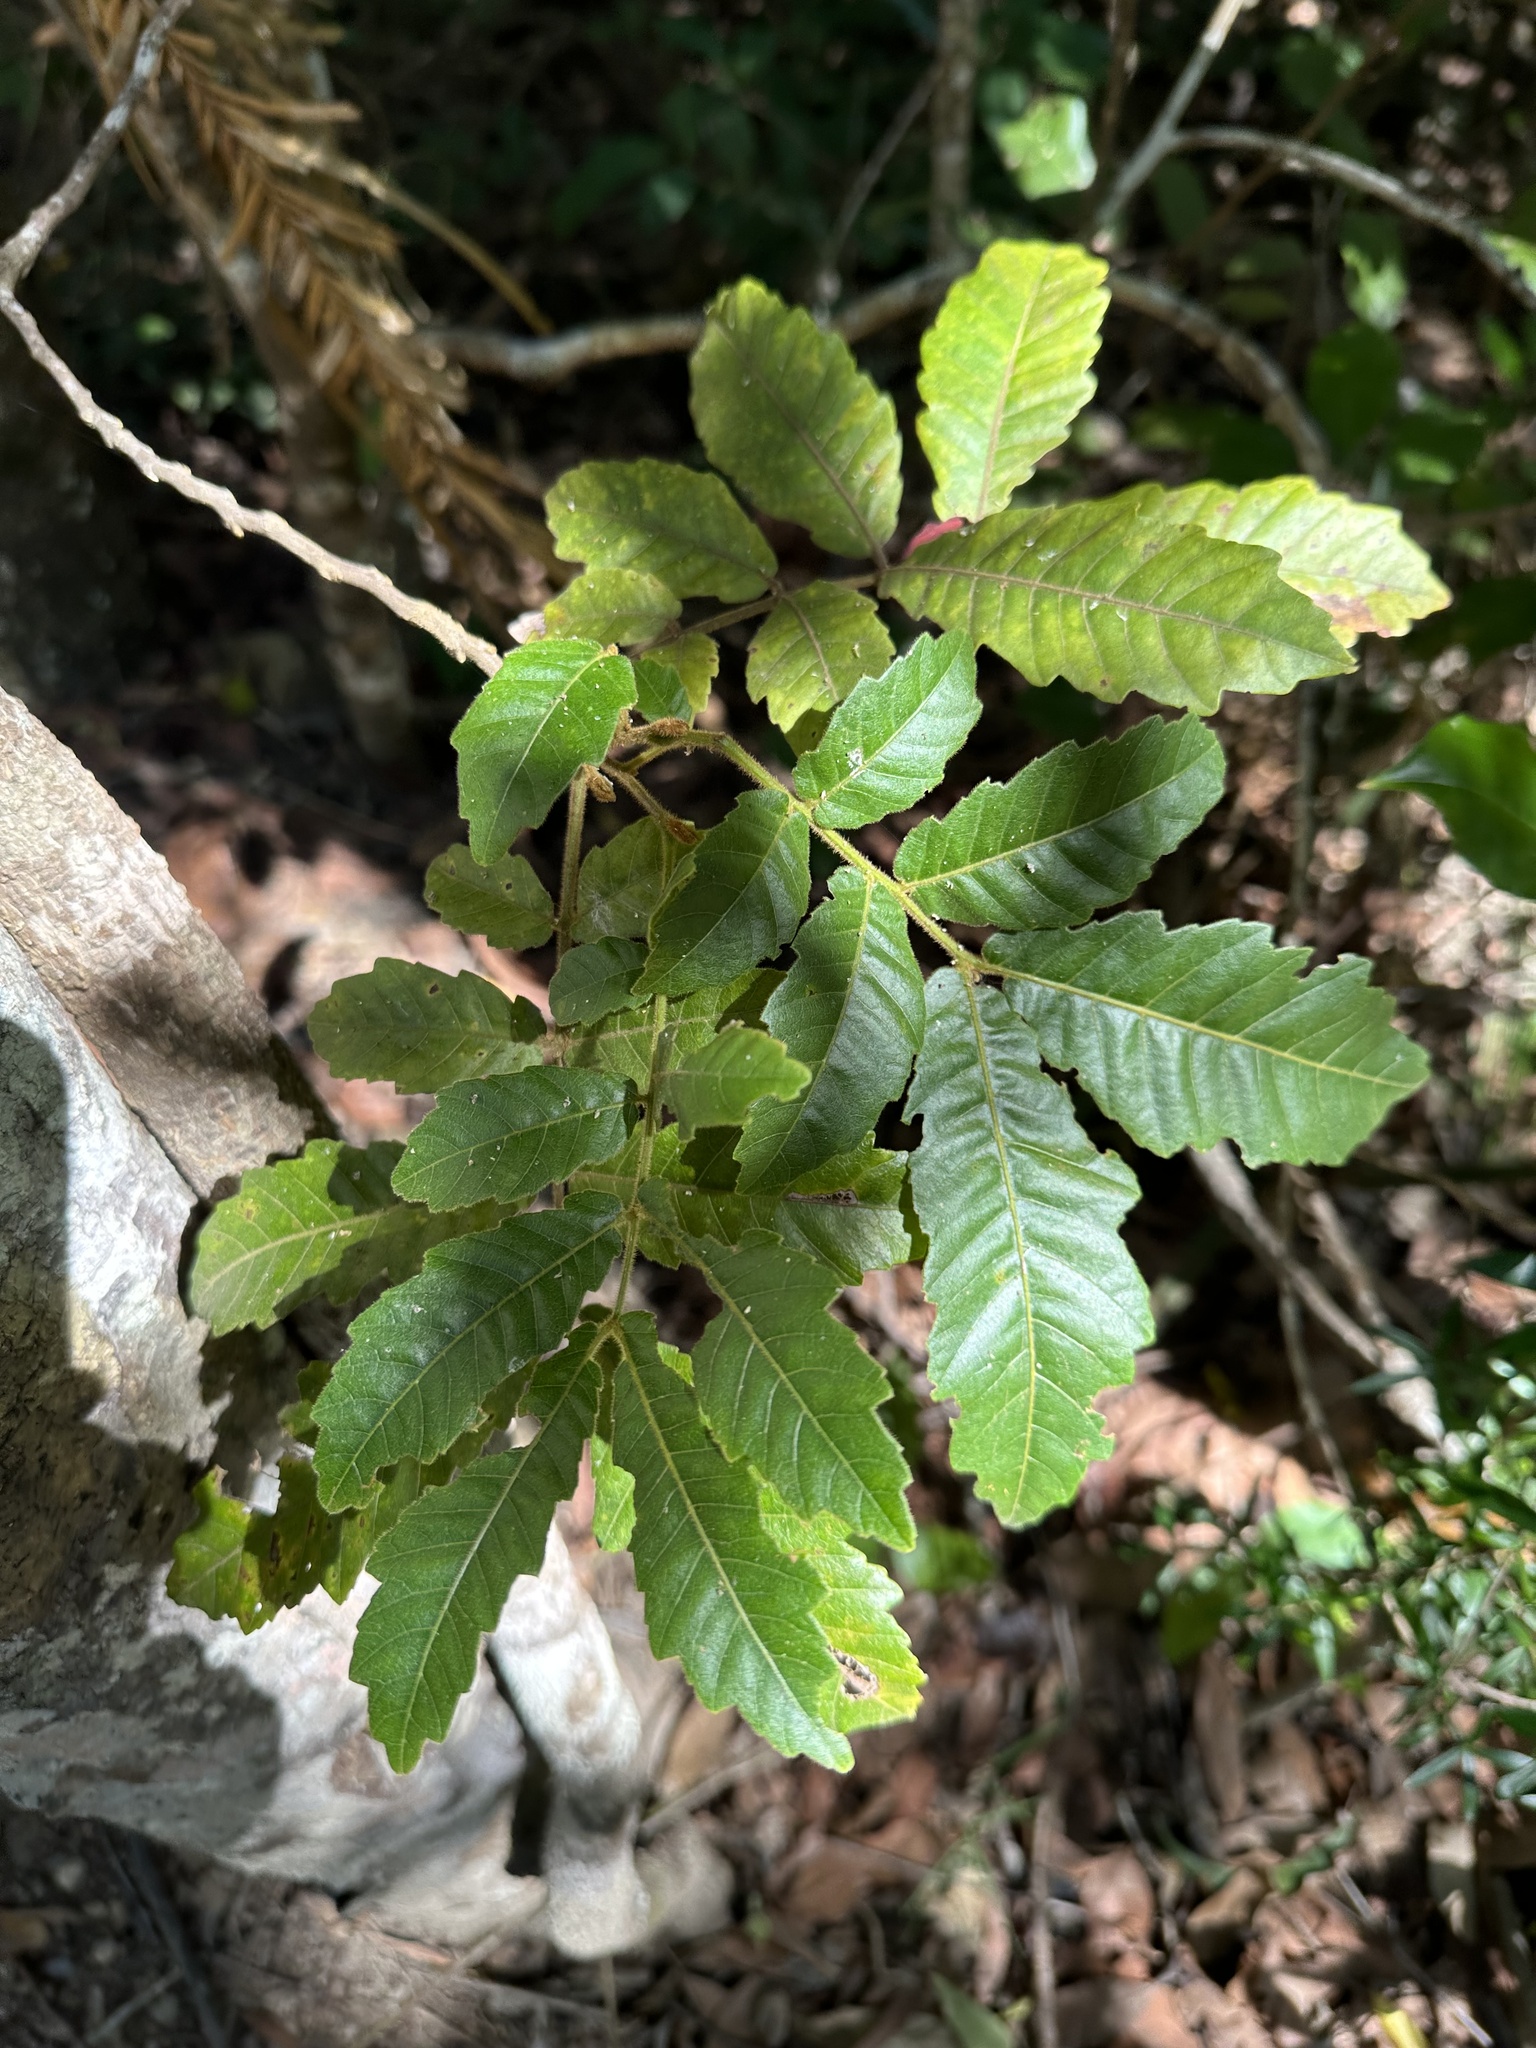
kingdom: Plantae
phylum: Tracheophyta
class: Magnoliopsida
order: Sapindales
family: Sapindaceae
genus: Alectryon
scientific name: Alectryon tomentosus
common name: Bed-jacket
